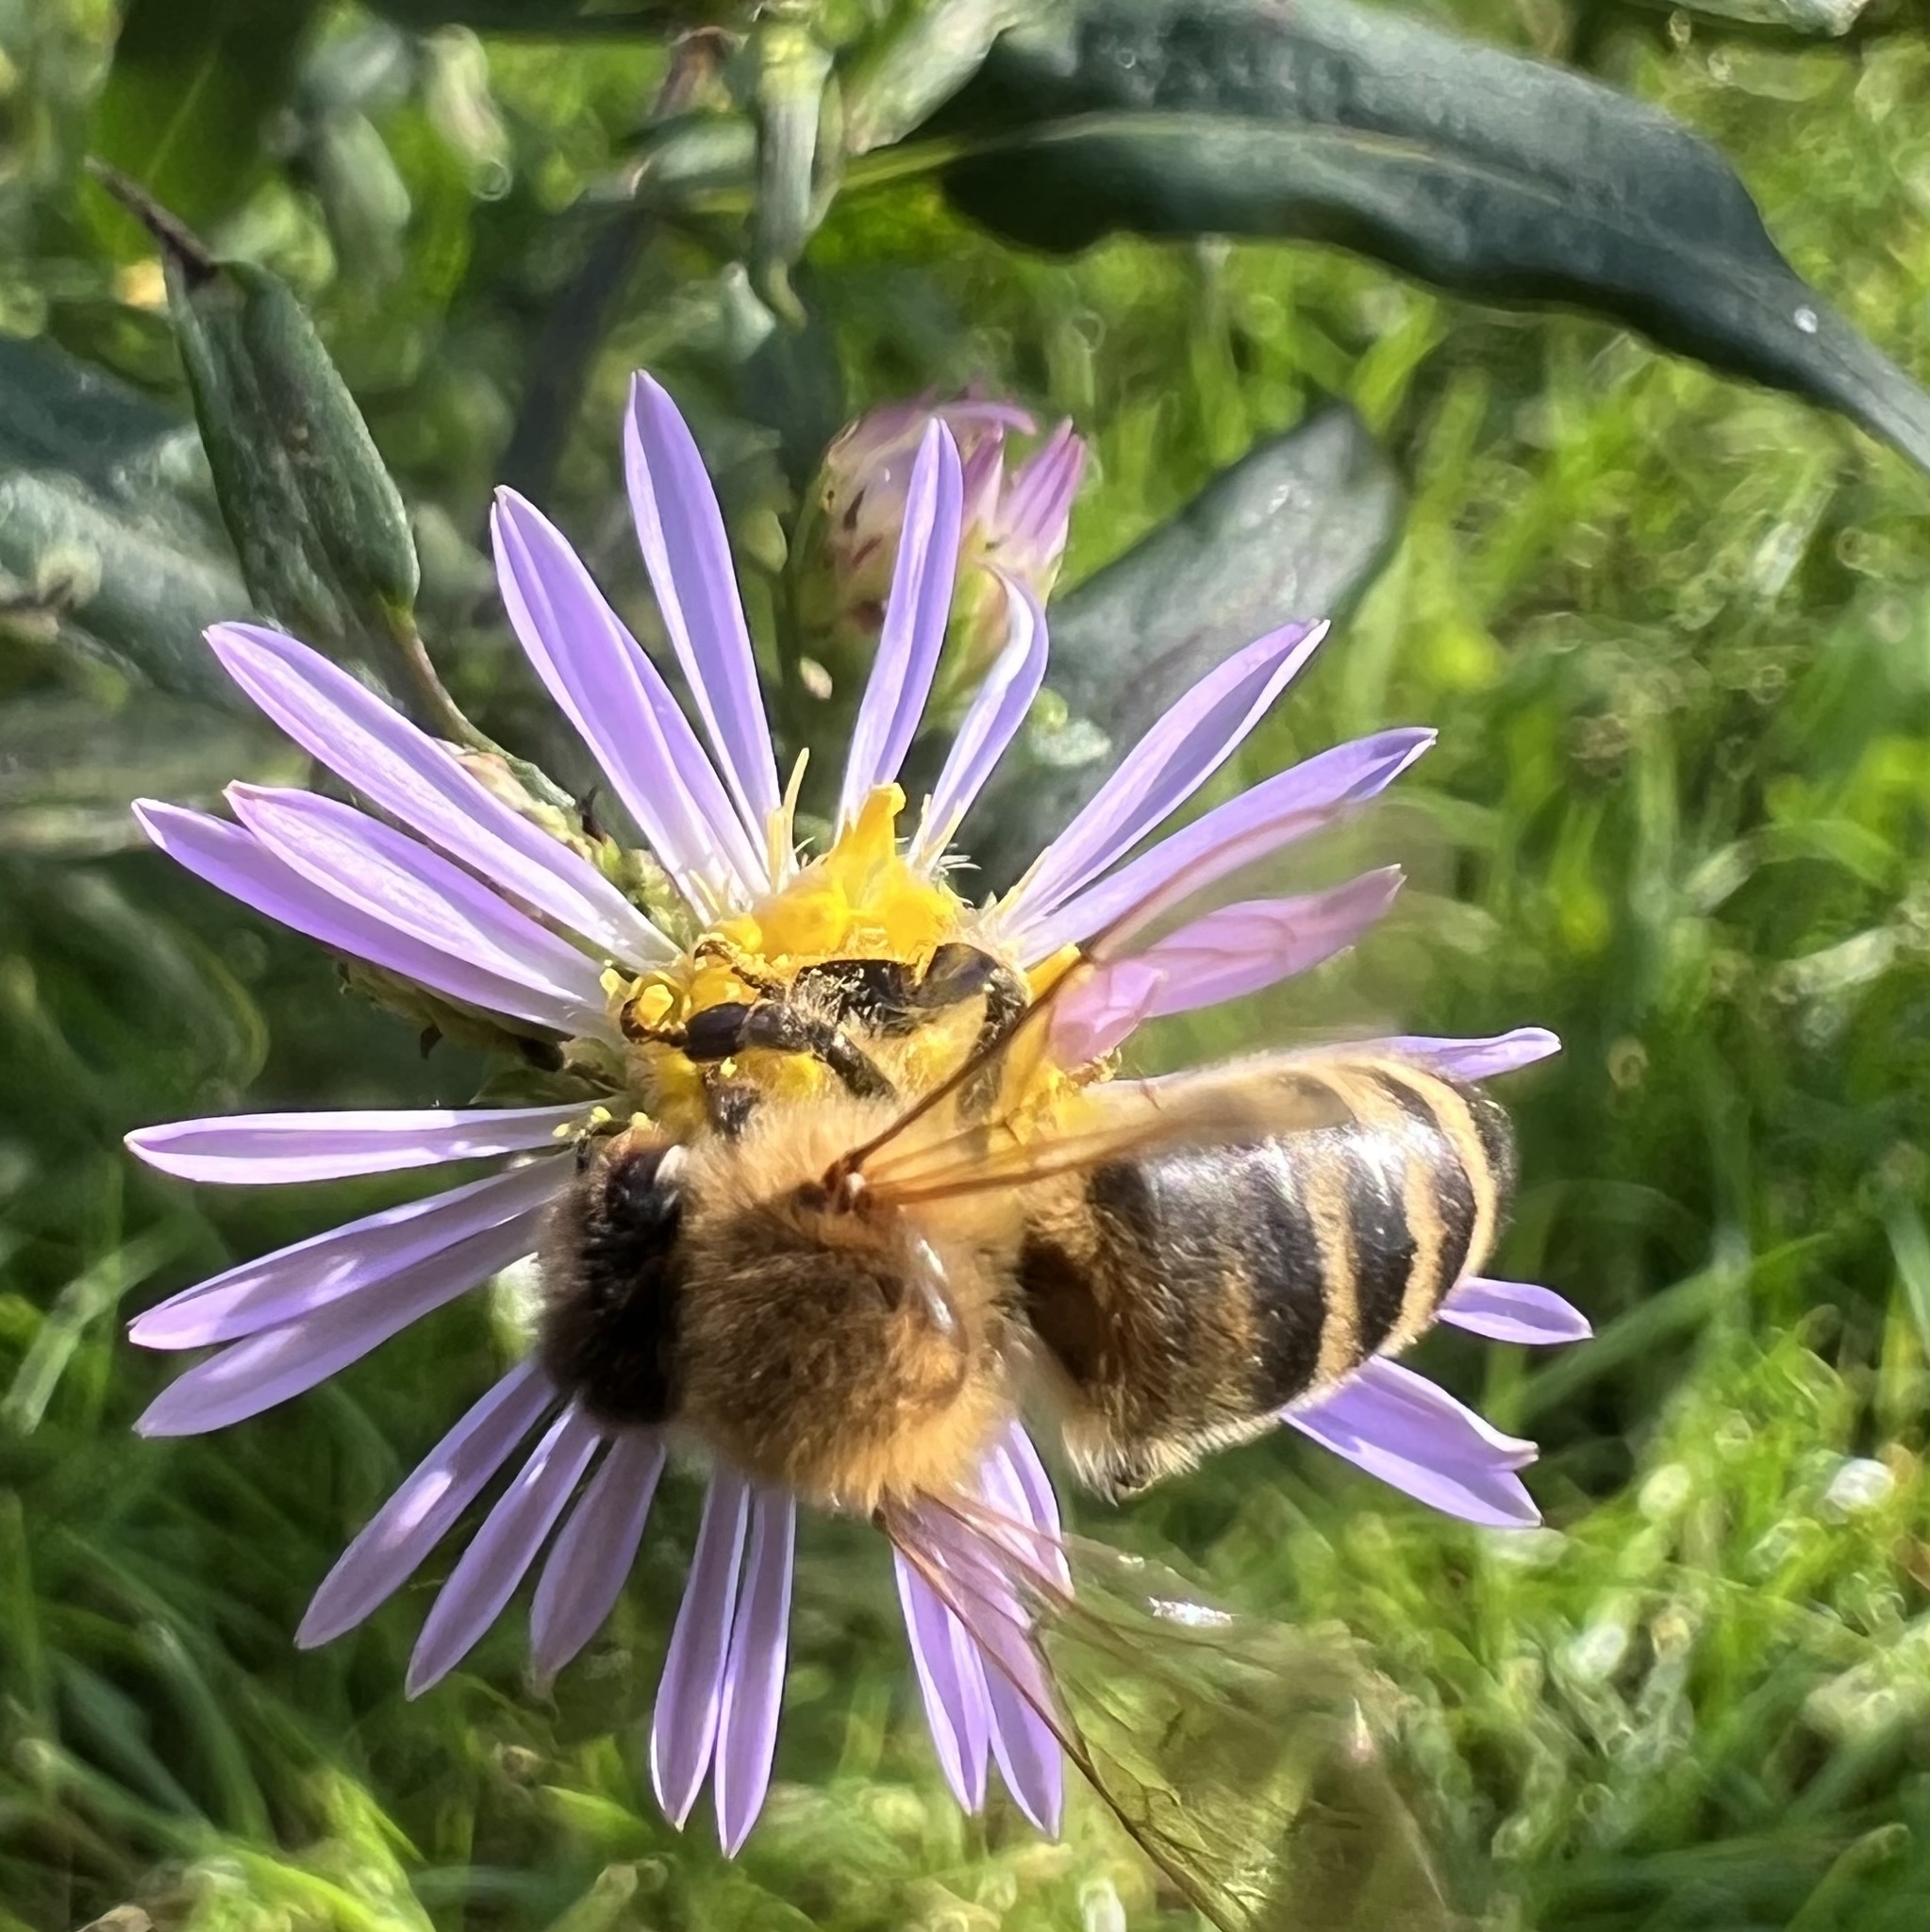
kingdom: Animalia
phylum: Arthropoda
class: Insecta
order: Hymenoptera
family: Apidae
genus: Apis
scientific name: Apis mellifera
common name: Honey bee
